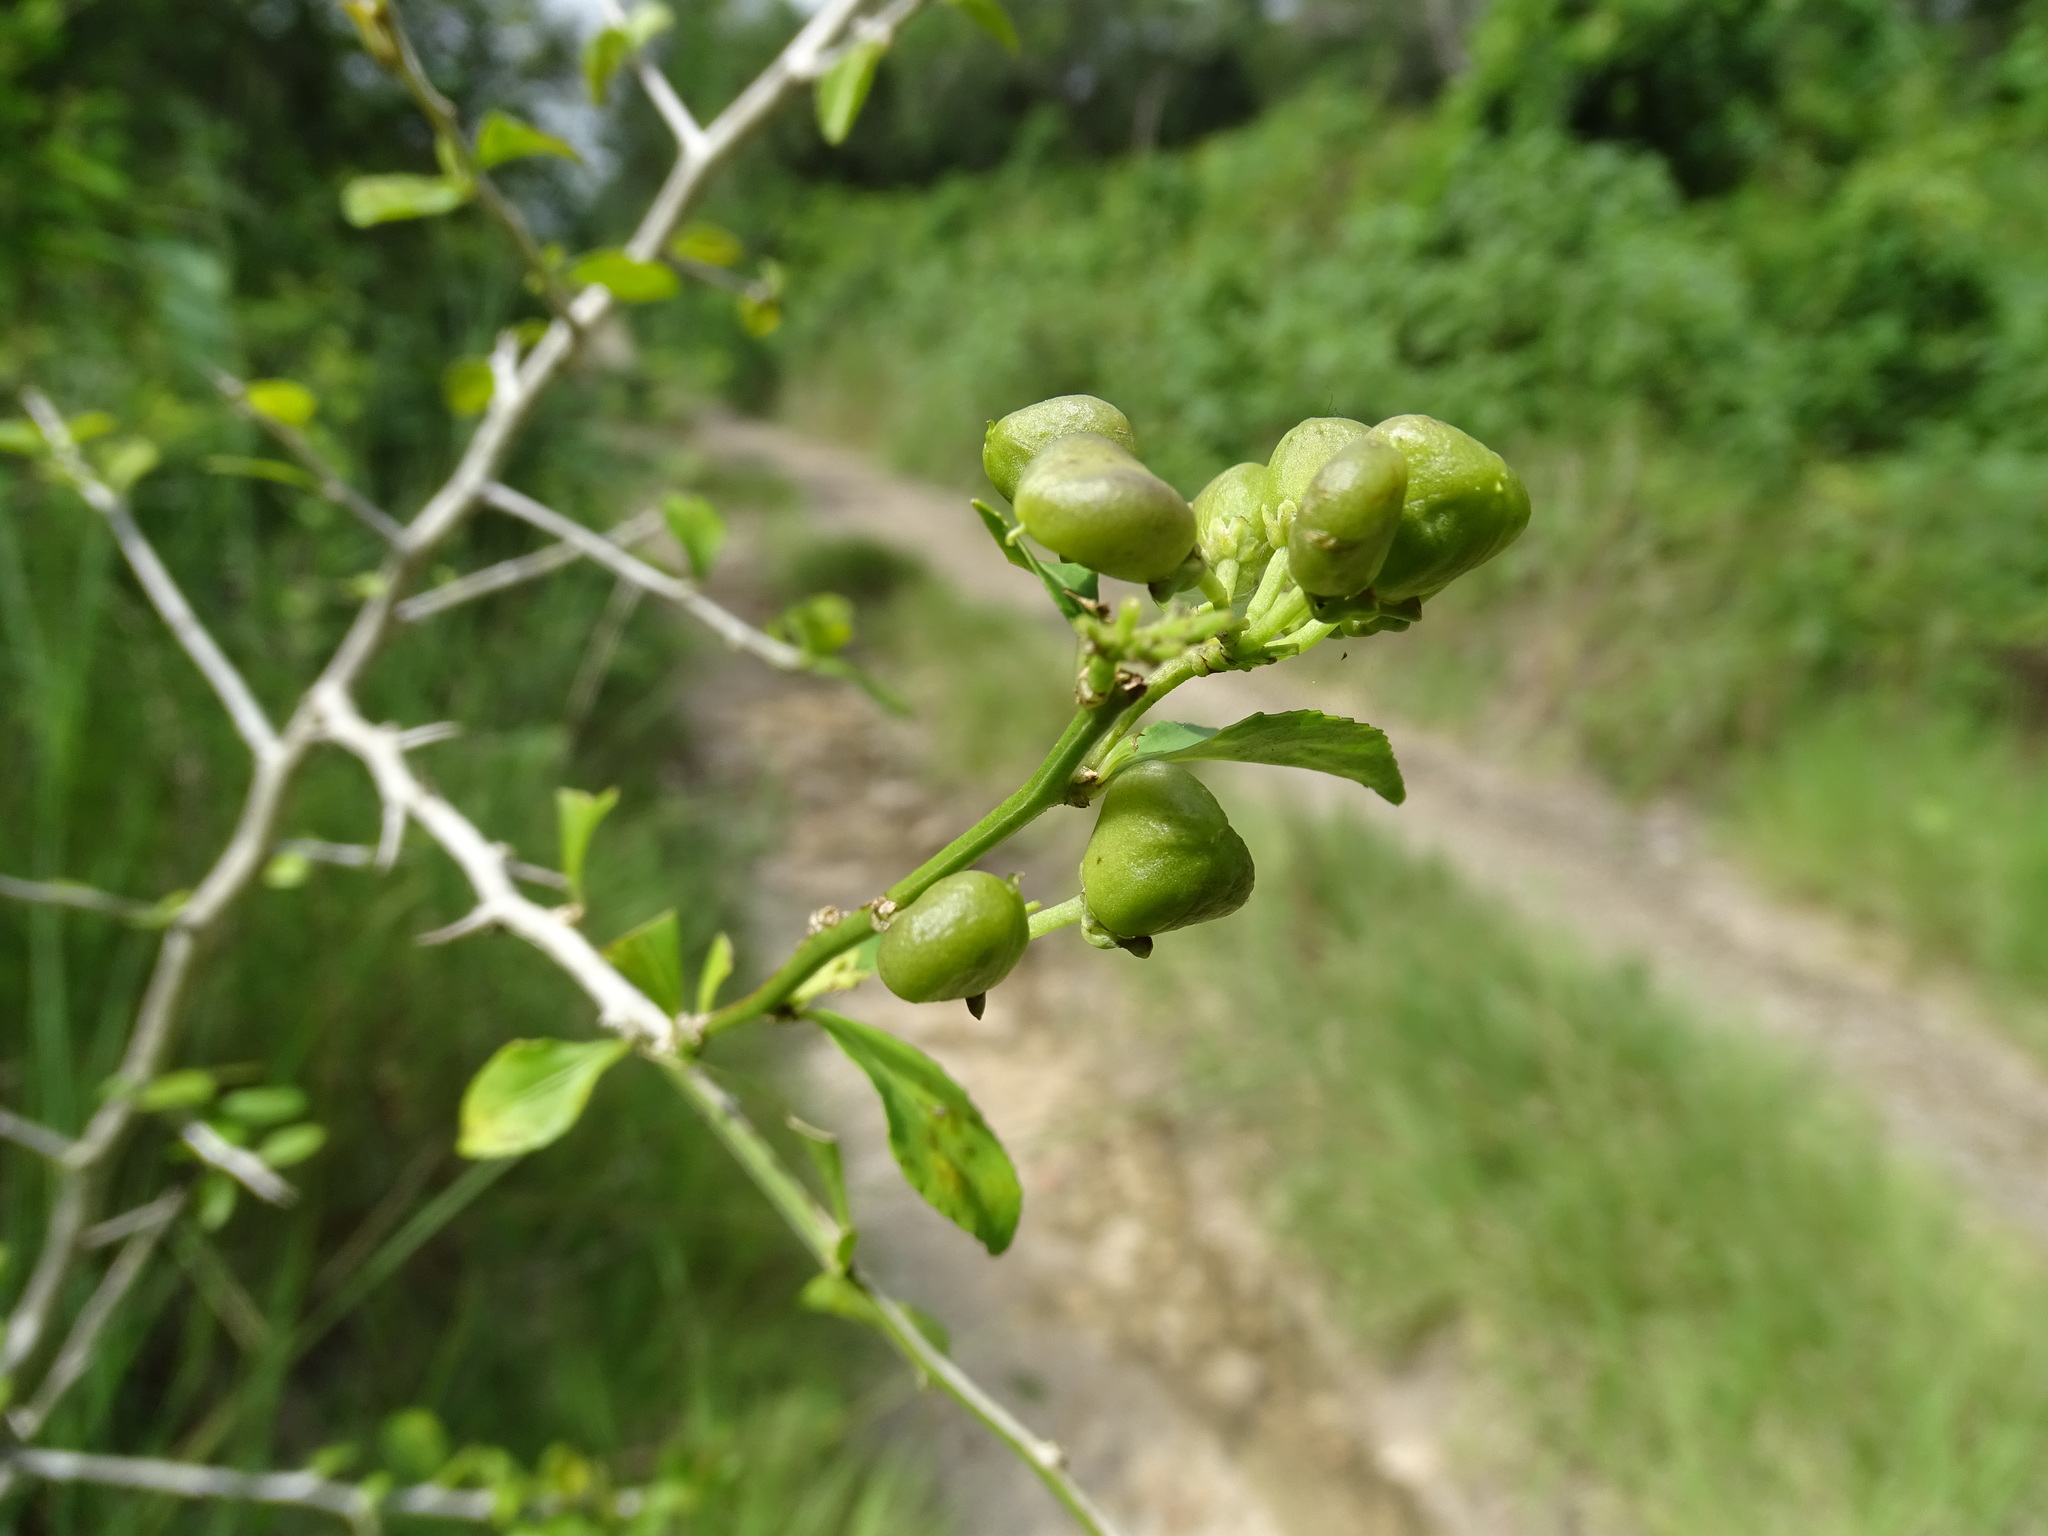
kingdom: Plantae
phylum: Tracheophyta
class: Magnoliopsida
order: Malpighiales
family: Violaceae
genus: Hybanthus
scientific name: Hybanthus yucatanensis
